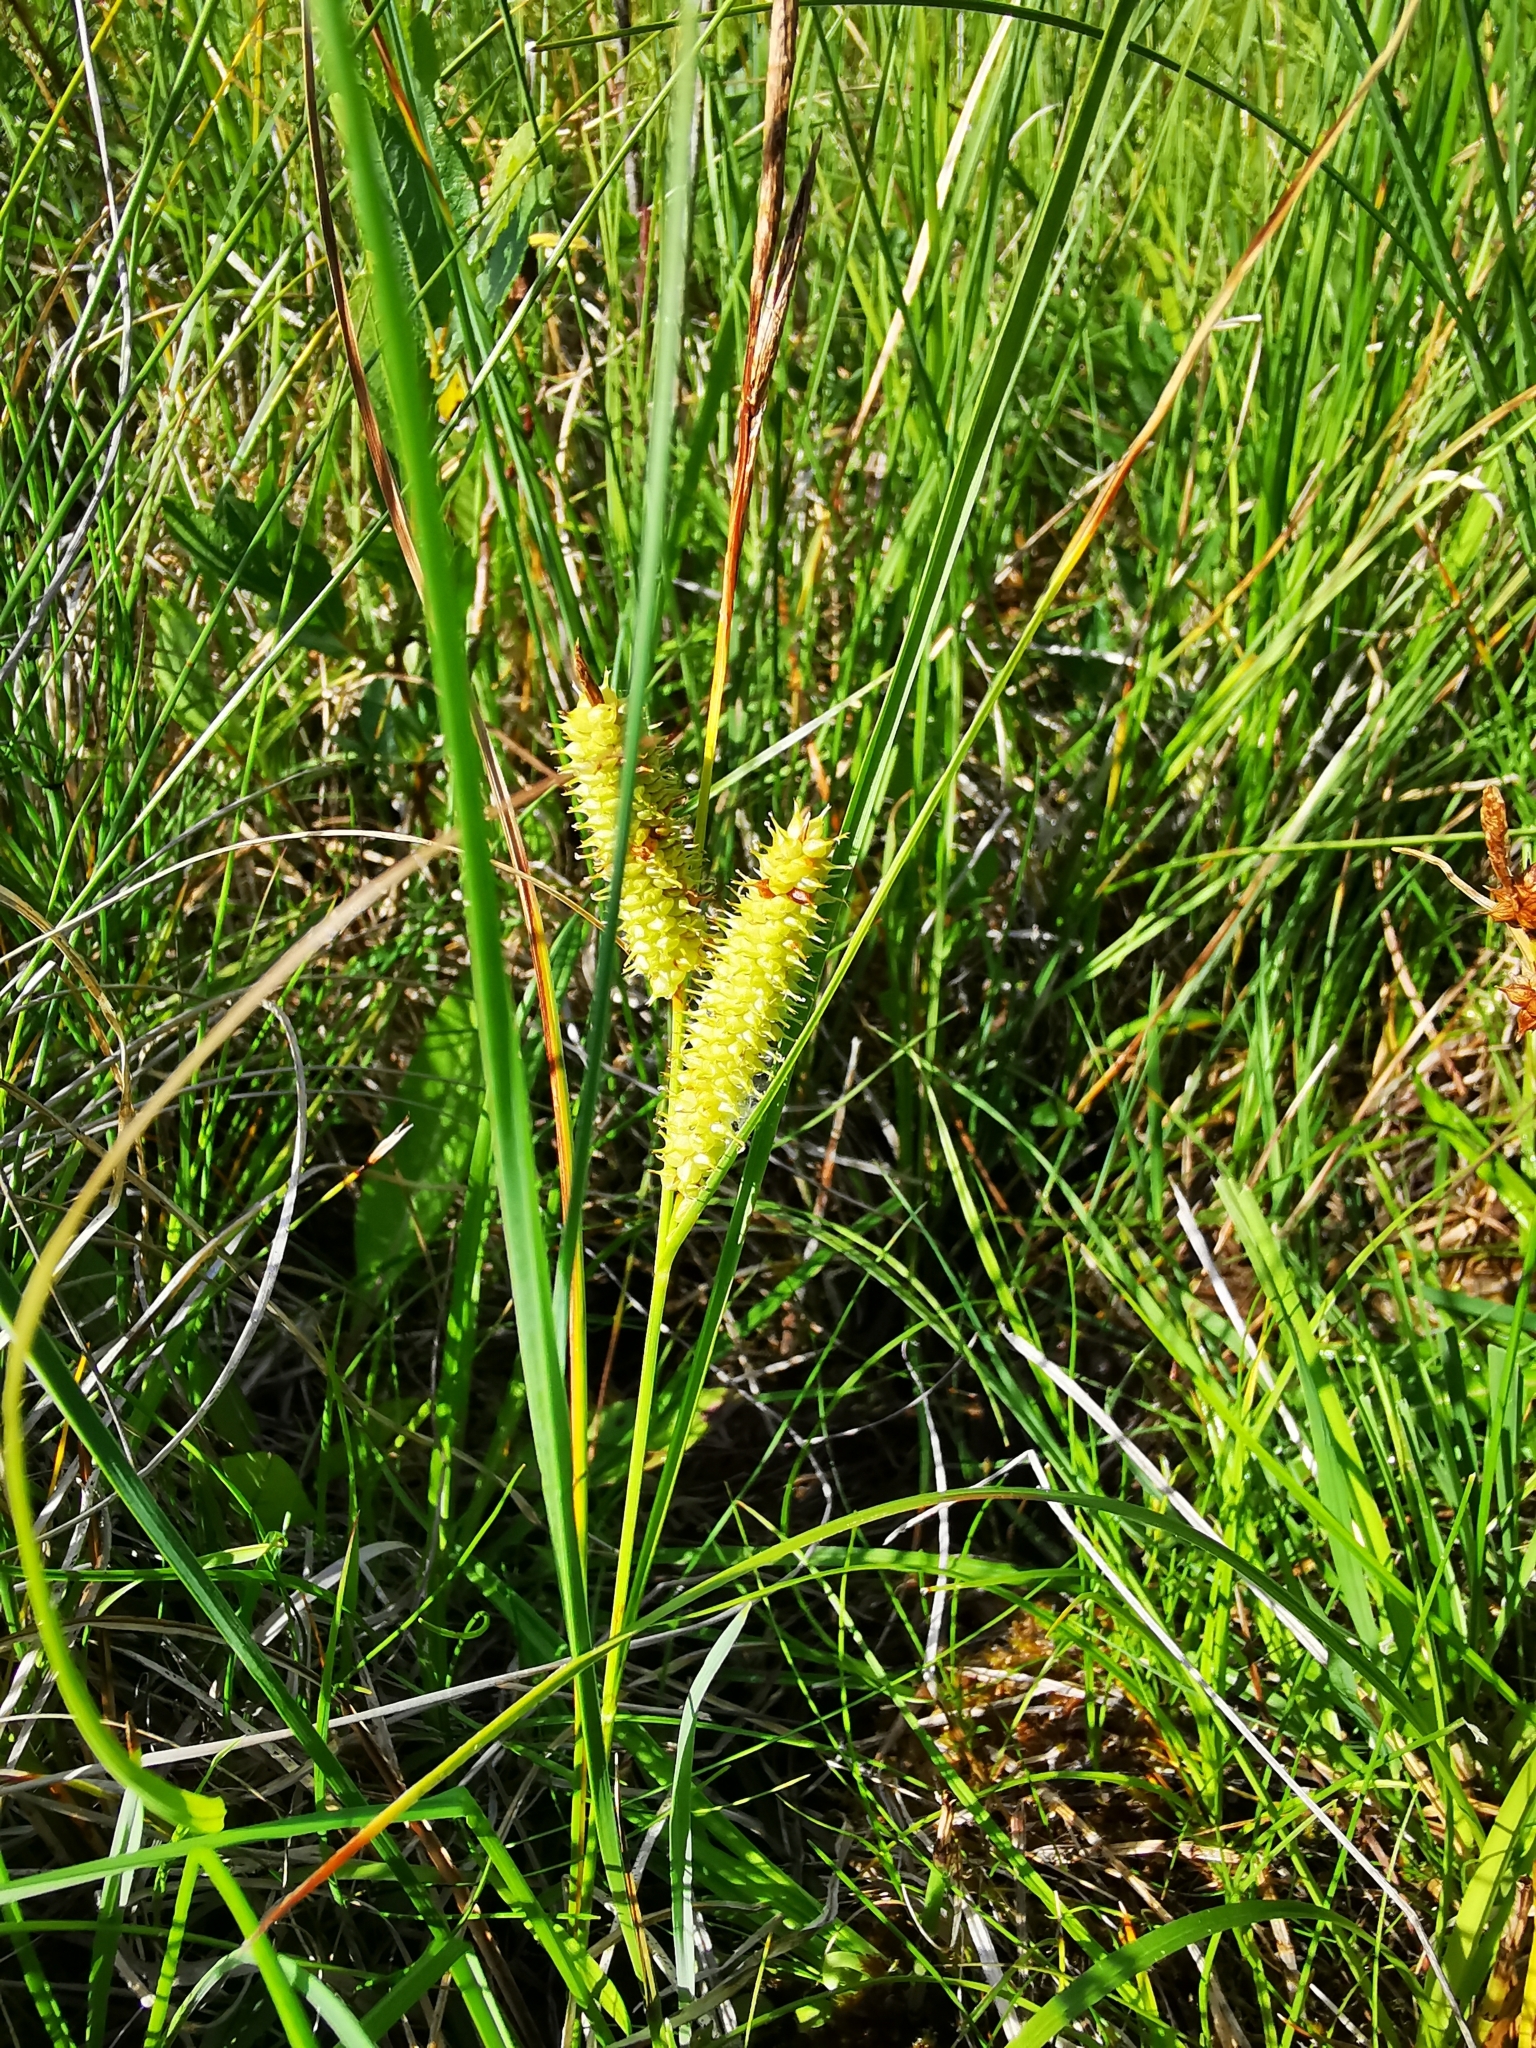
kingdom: Plantae
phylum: Tracheophyta
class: Liliopsida
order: Poales
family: Cyperaceae
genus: Carex
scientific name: Carex rostrata
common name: Bottle sedge
